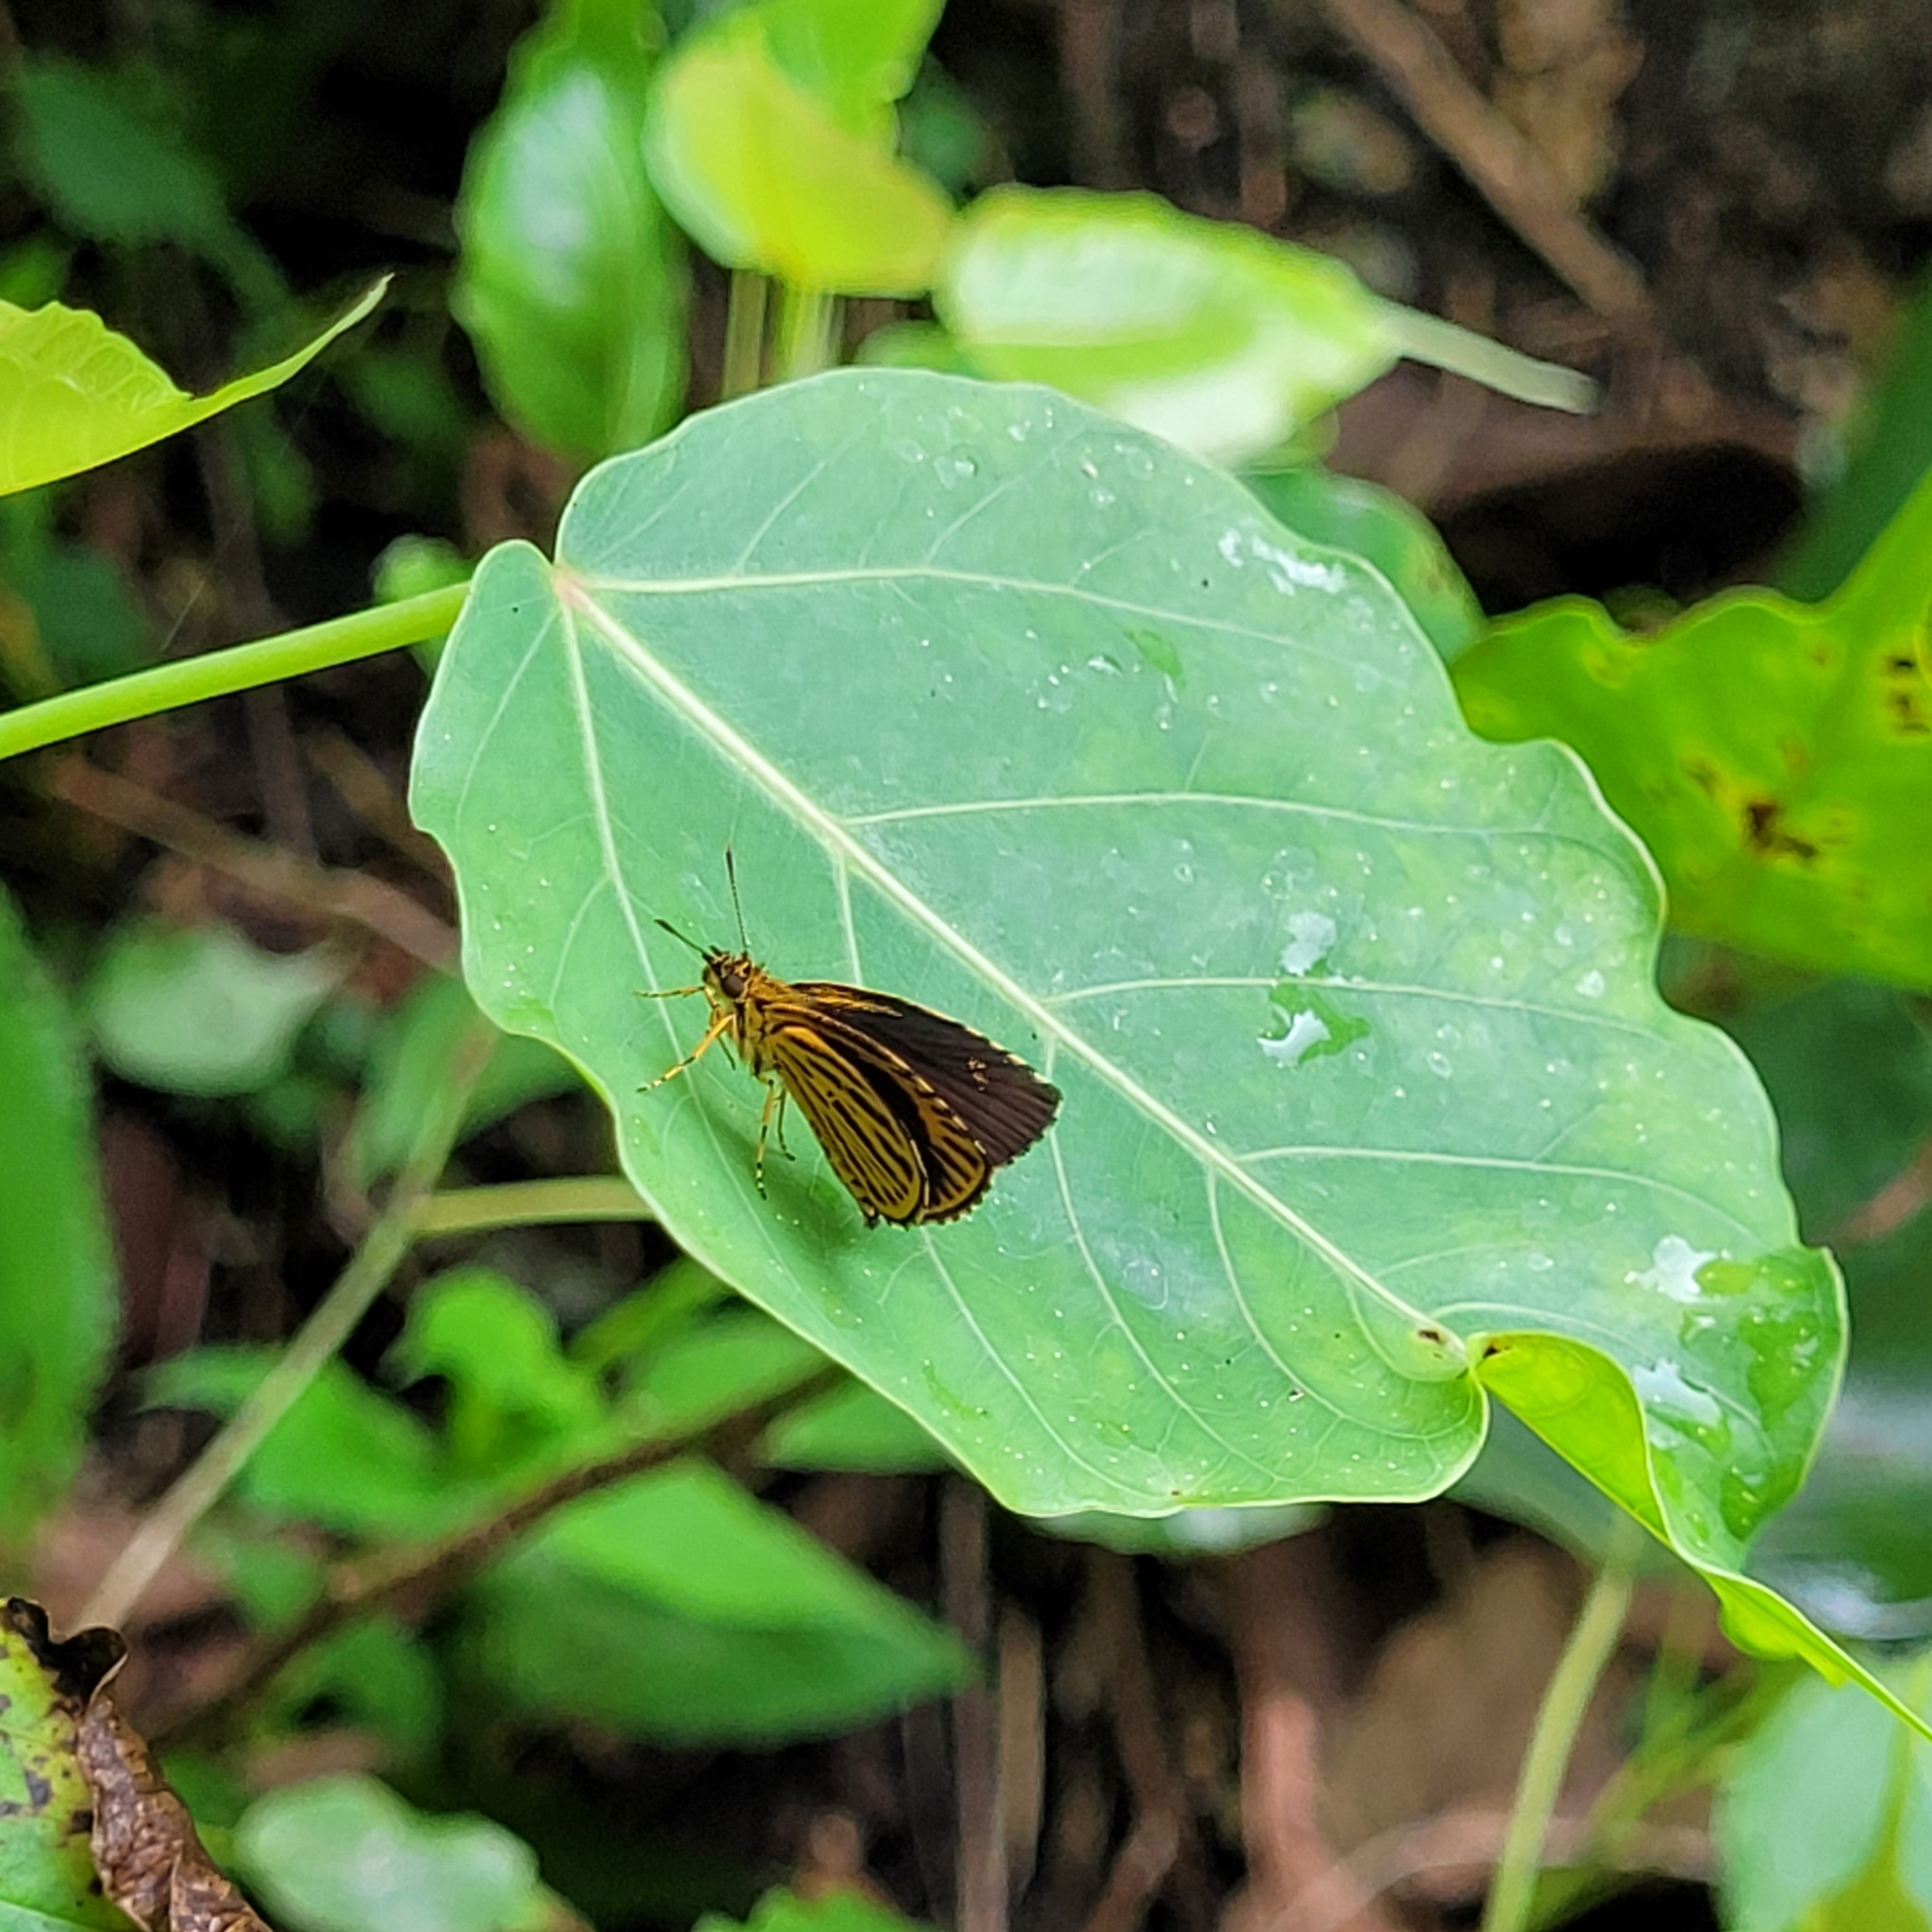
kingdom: Animalia
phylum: Arthropoda
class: Insecta
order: Lepidoptera
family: Hesperiidae
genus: Ampittia
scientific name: Ampittia subvittatus
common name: Tiger hopper
